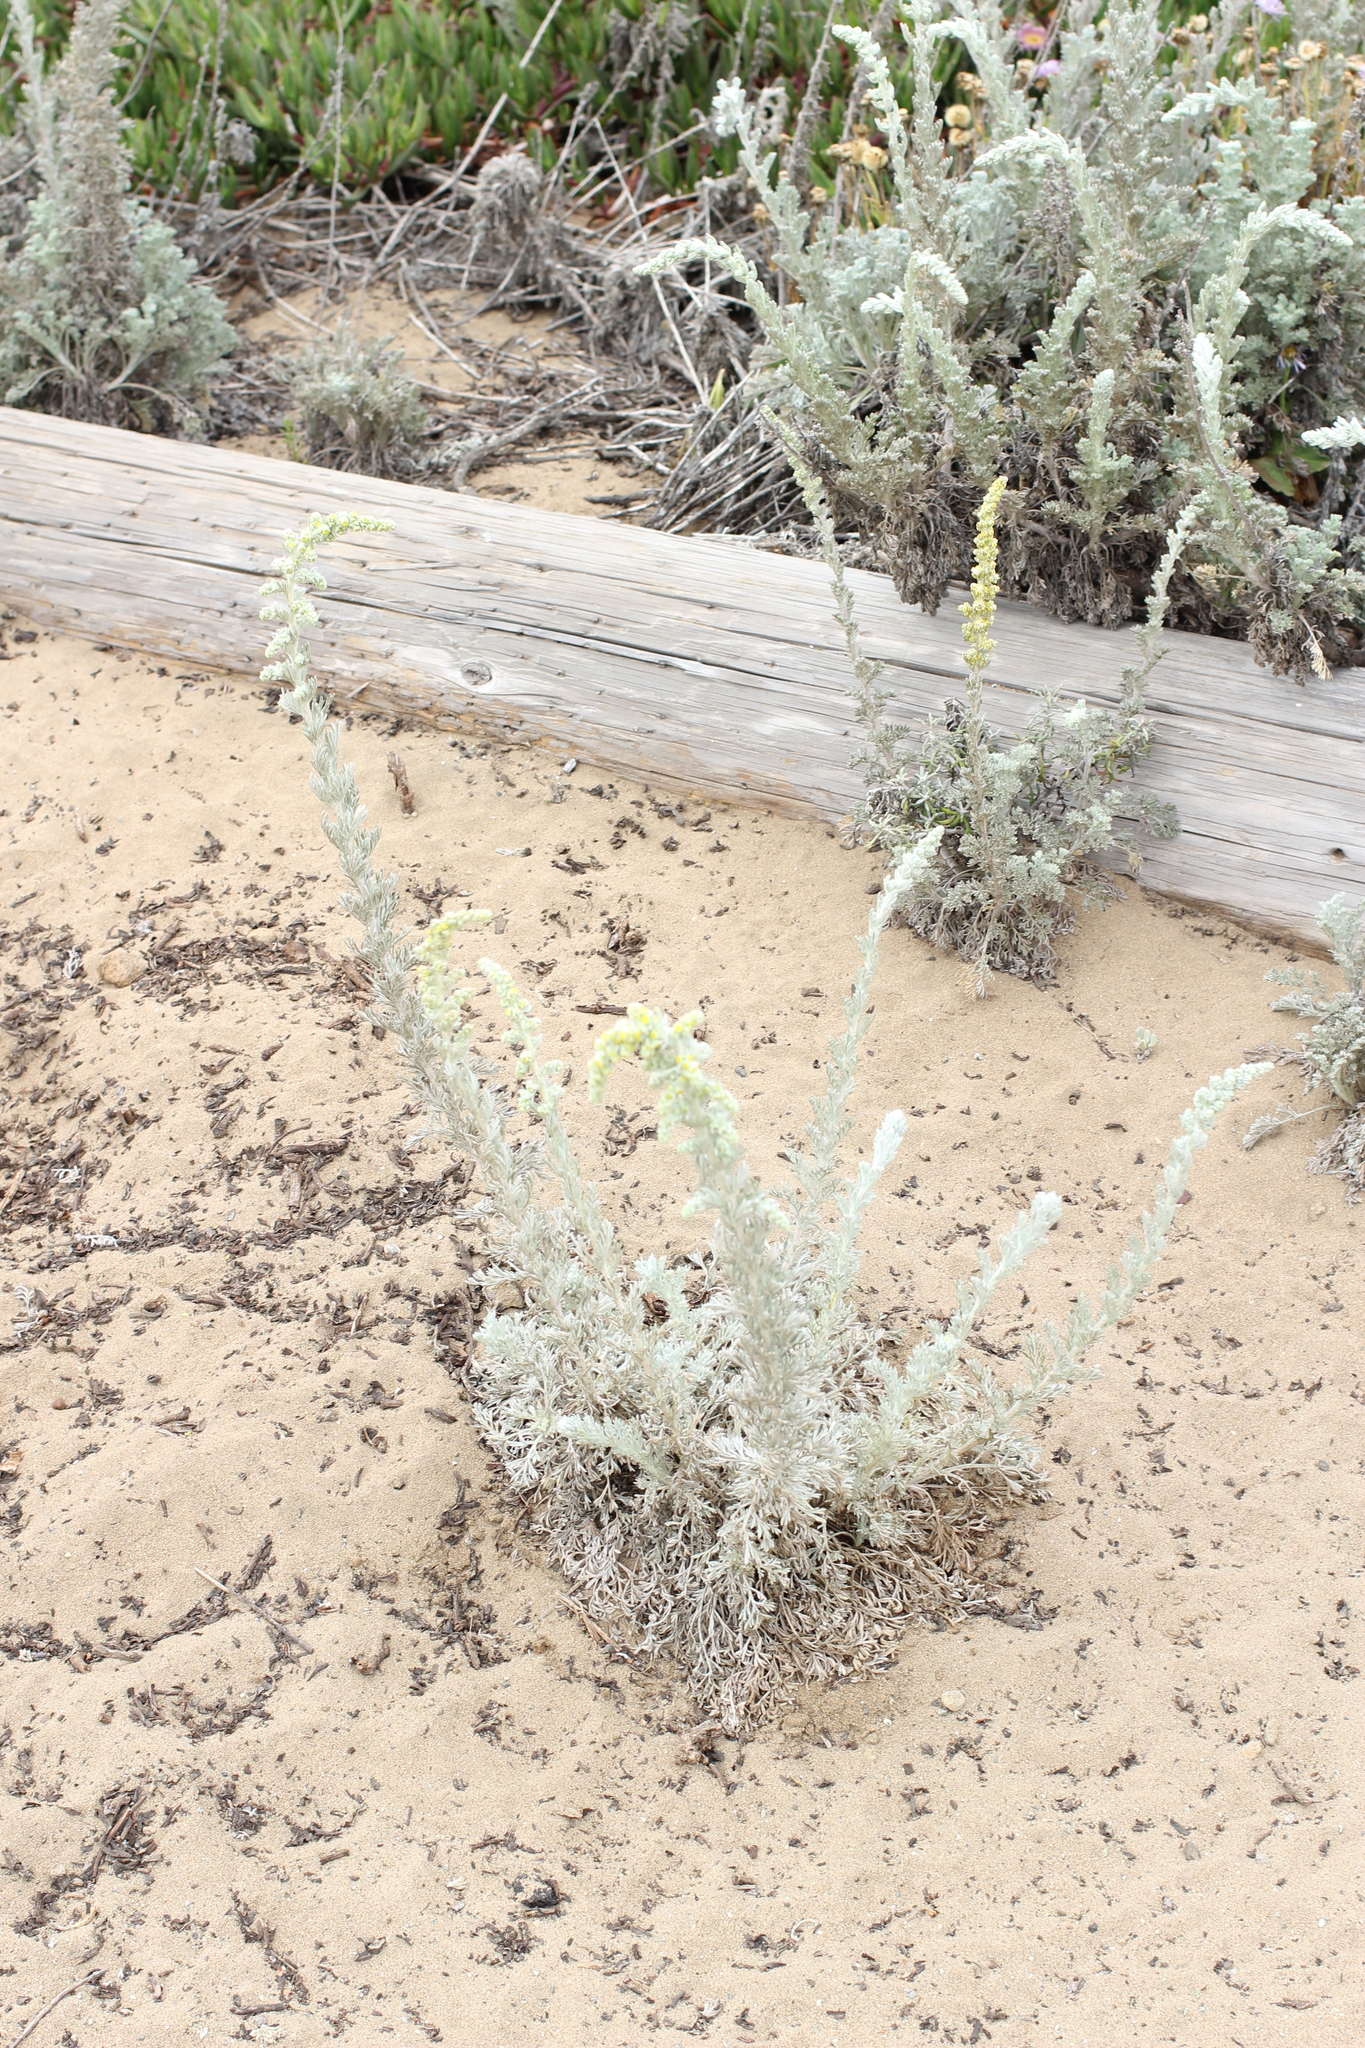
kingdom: Plantae
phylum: Tracheophyta
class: Magnoliopsida
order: Asterales
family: Asteraceae
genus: Artemisia
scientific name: Artemisia pycnocephala
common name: Coastal sagewort
